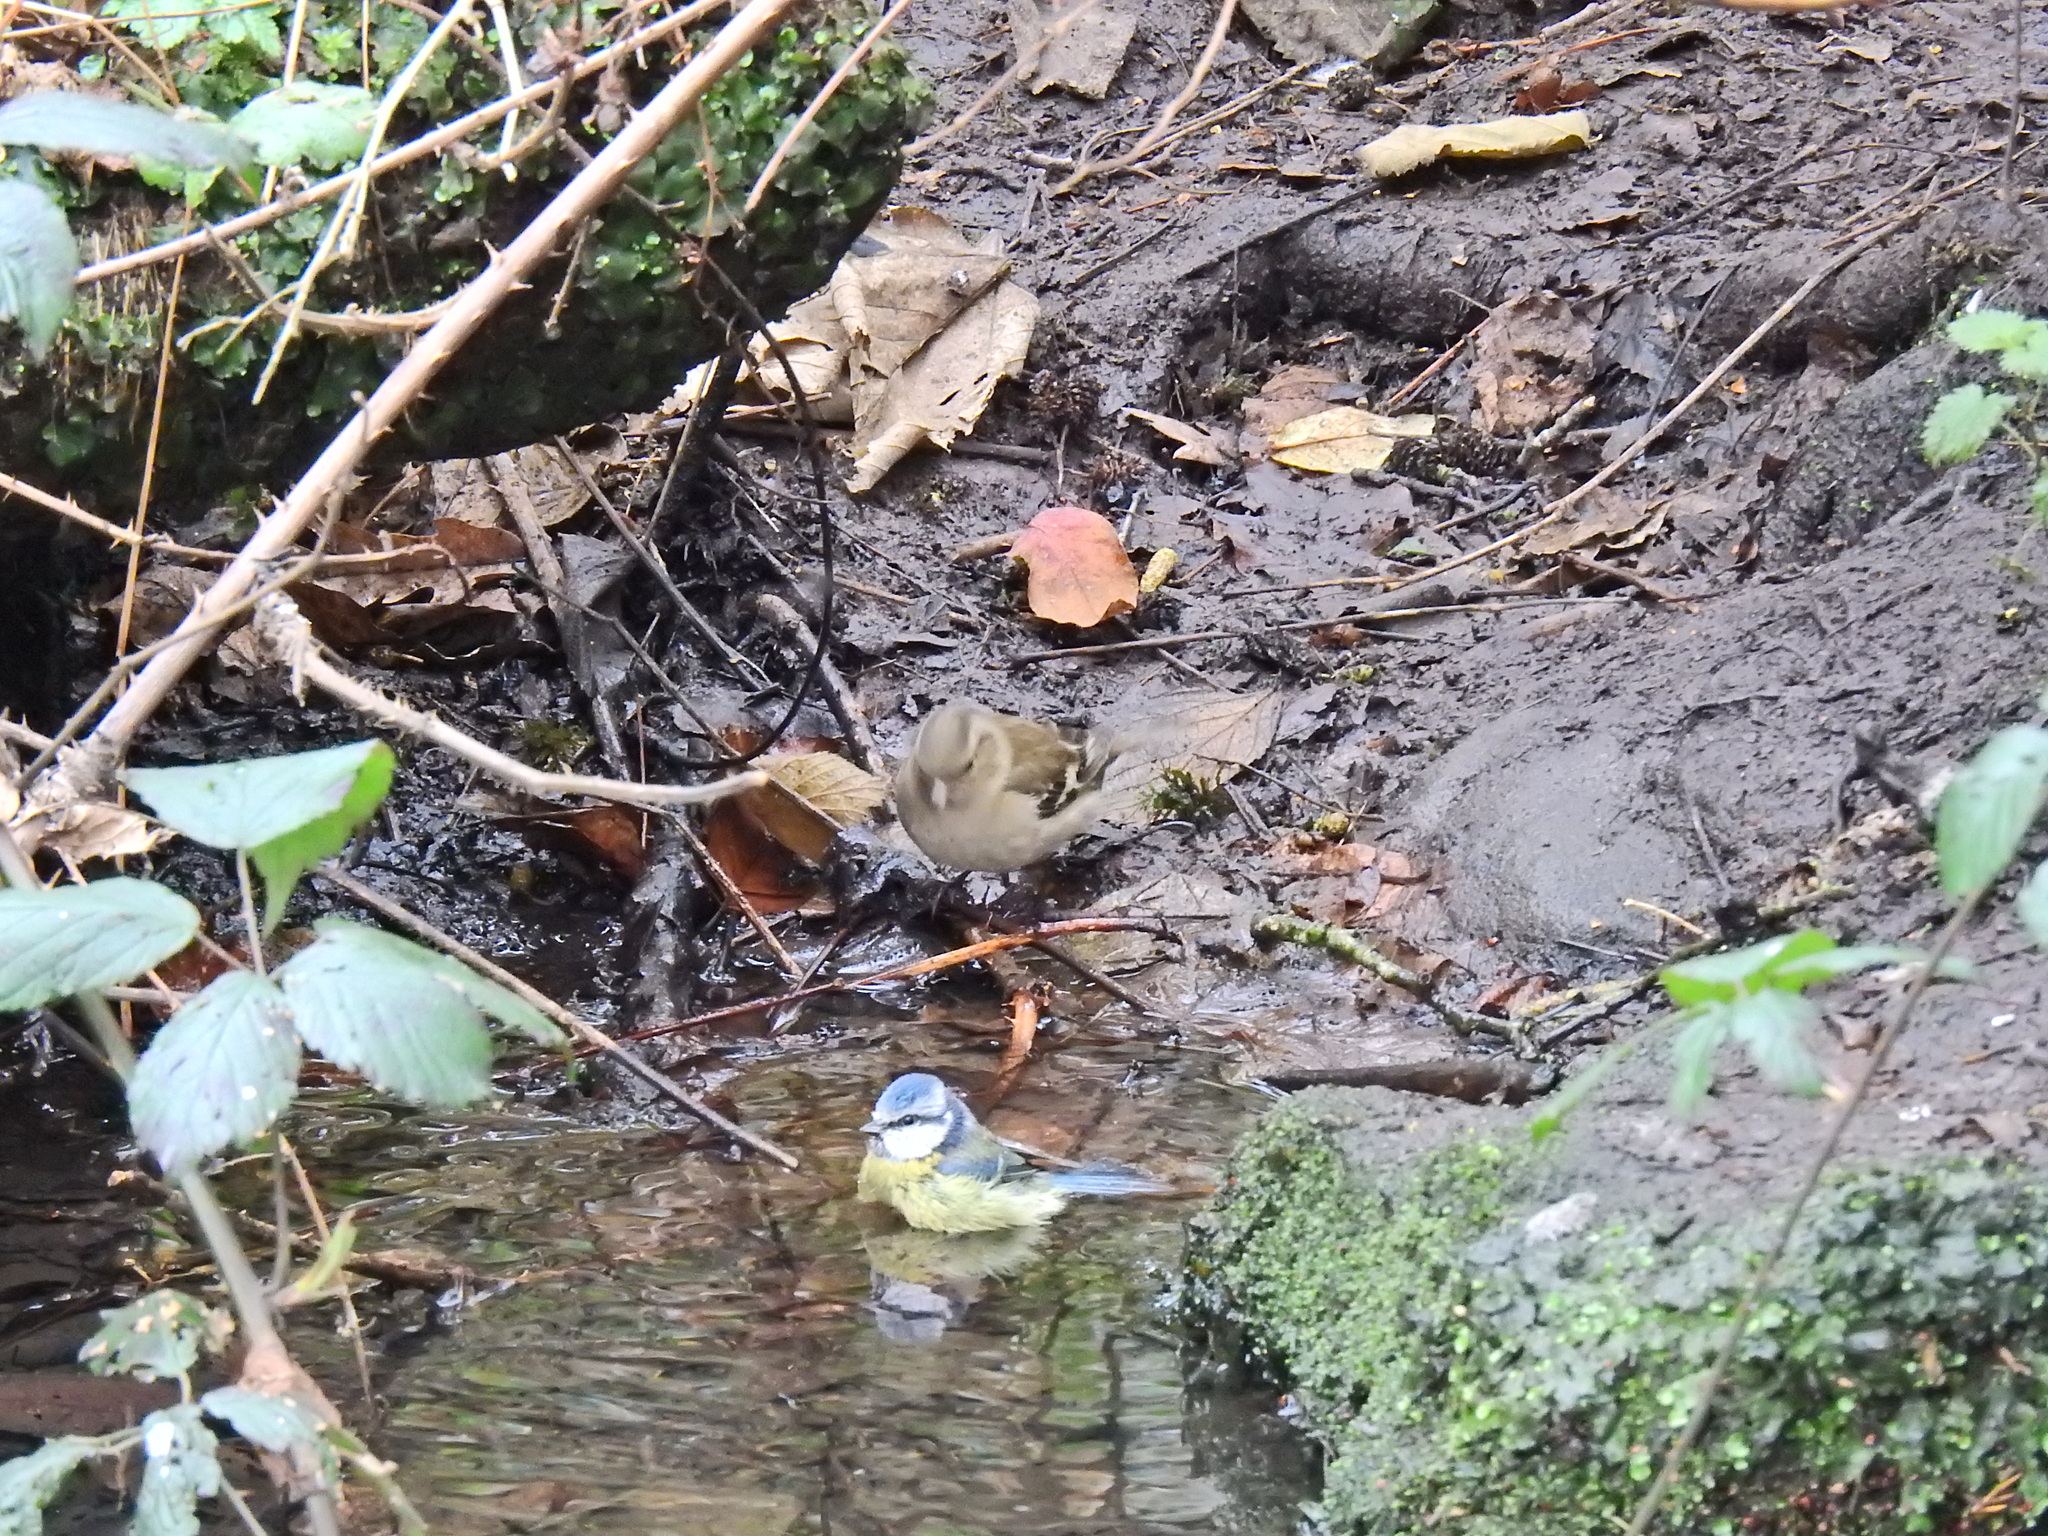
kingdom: Animalia
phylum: Chordata
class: Aves
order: Passeriformes
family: Fringillidae
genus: Fringilla
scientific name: Fringilla coelebs
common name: Common chaffinch
